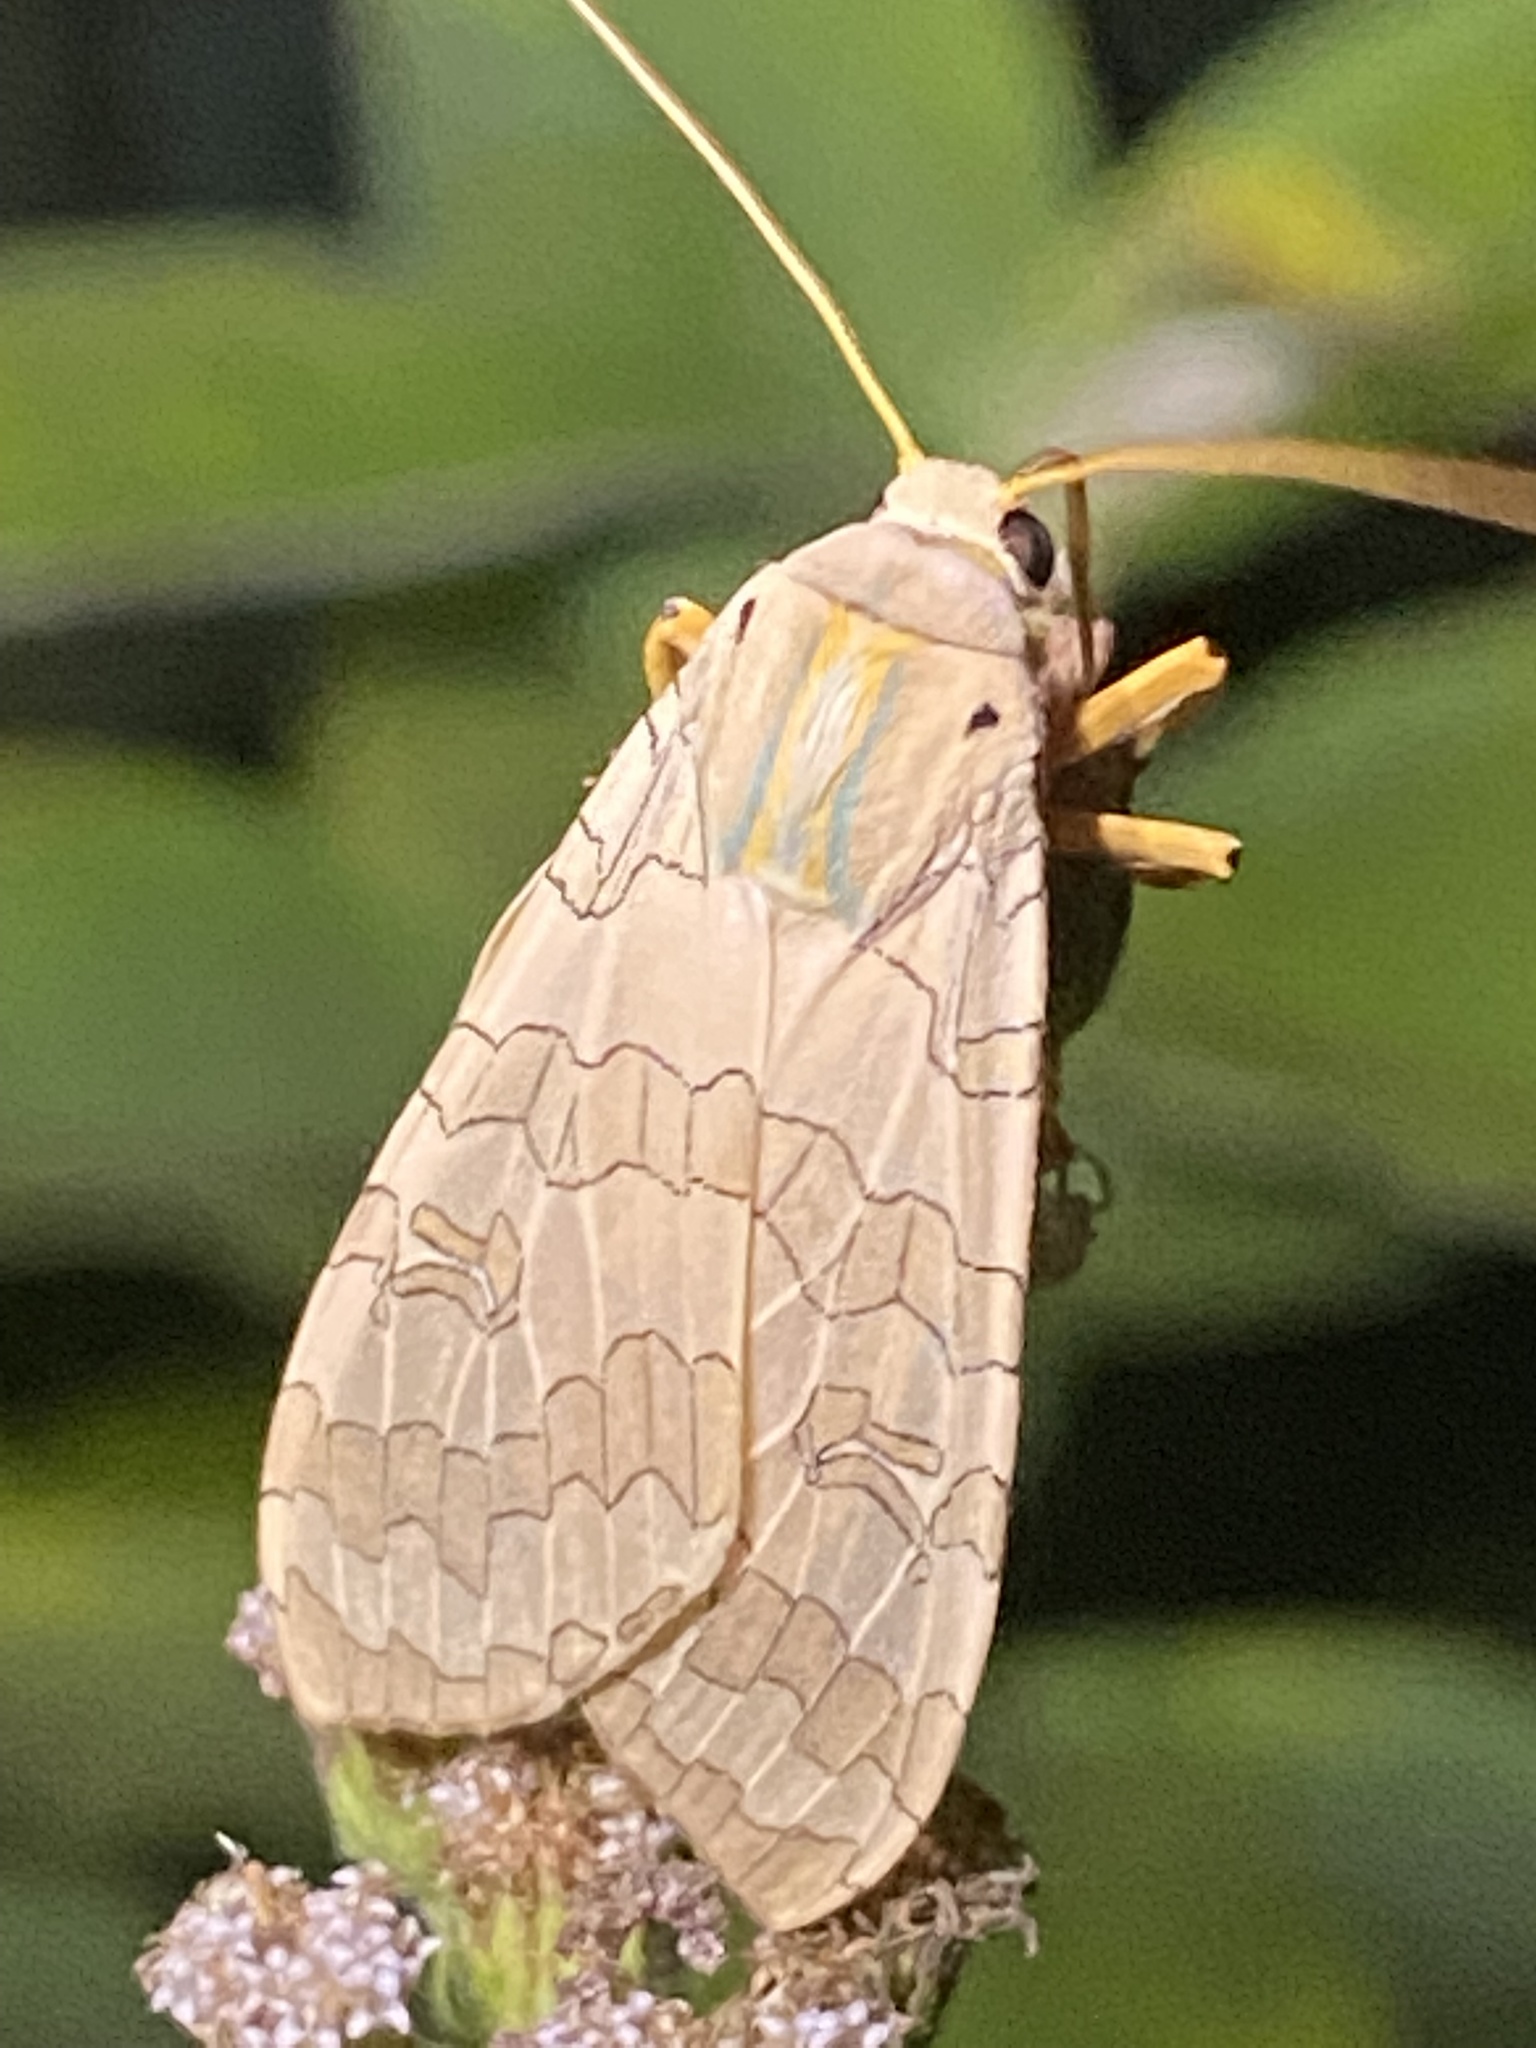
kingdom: Animalia
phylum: Arthropoda
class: Insecta
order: Lepidoptera
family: Erebidae
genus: Halysidota
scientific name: Halysidota
